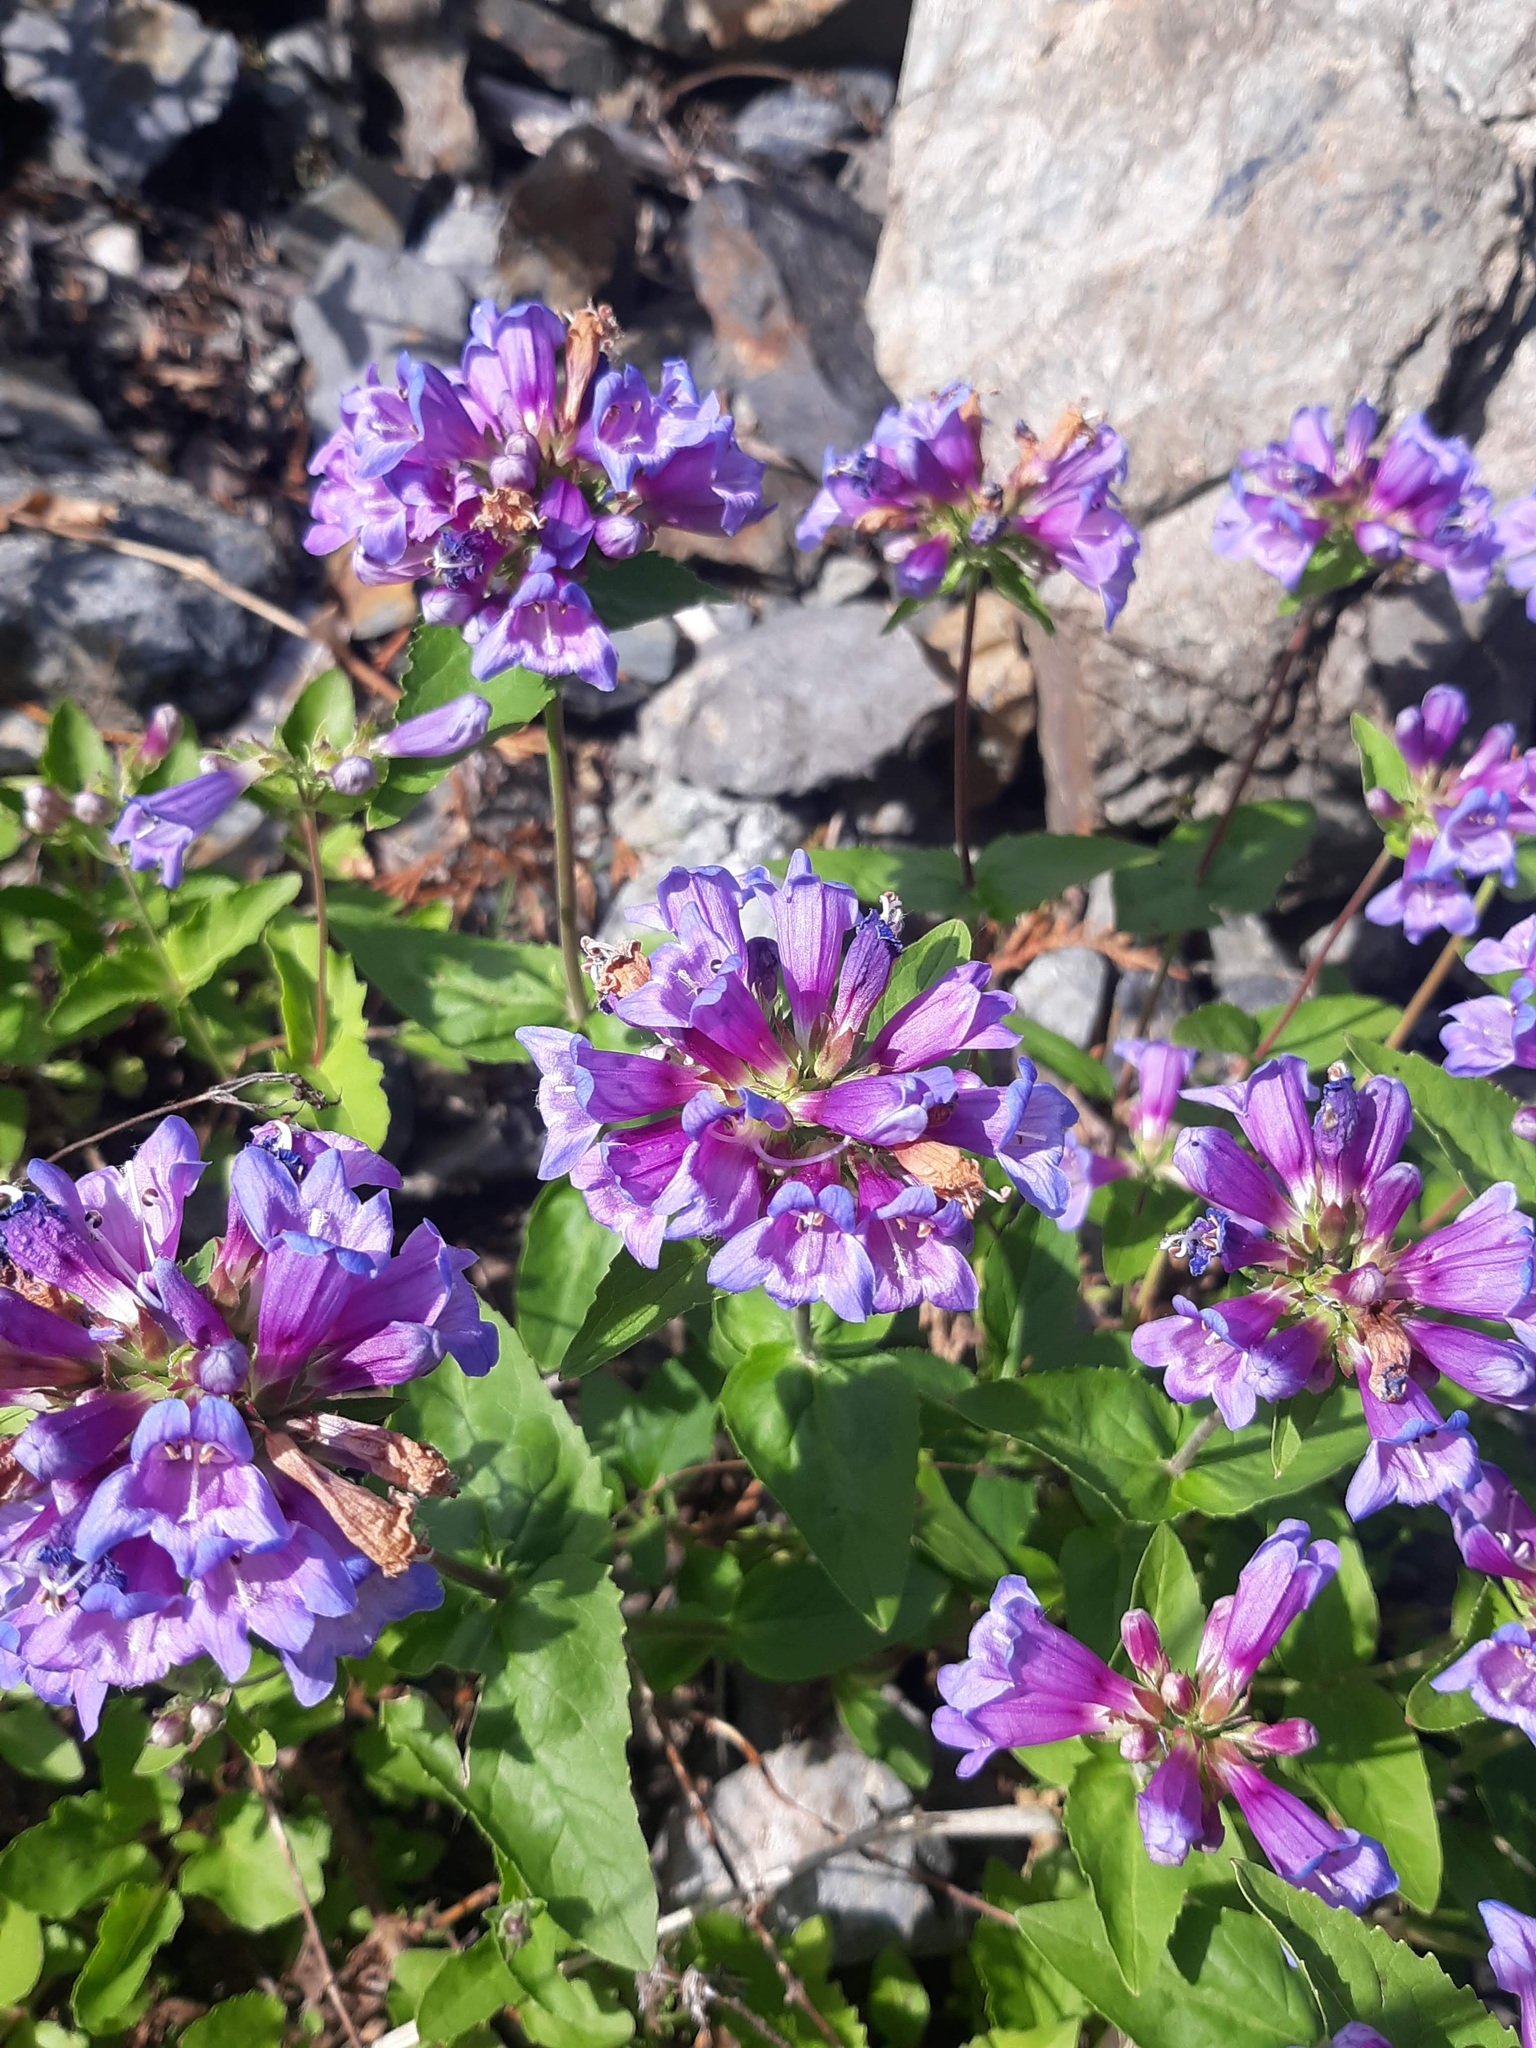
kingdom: Plantae
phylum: Tracheophyta
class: Magnoliopsida
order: Lamiales
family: Plantaginaceae
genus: Penstemon
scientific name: Penstemon serrulatus
